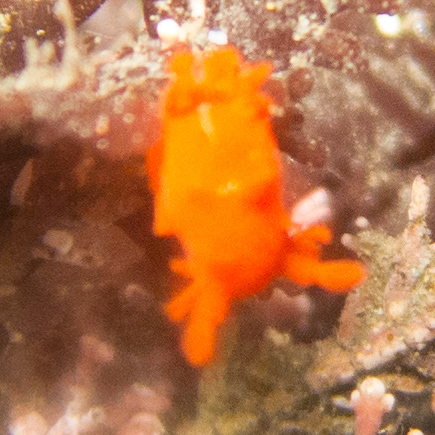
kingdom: Animalia
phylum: Mollusca
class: Gastropoda
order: Nudibranchia
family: Polyceridae
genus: Triopha
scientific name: Triopha maculata
